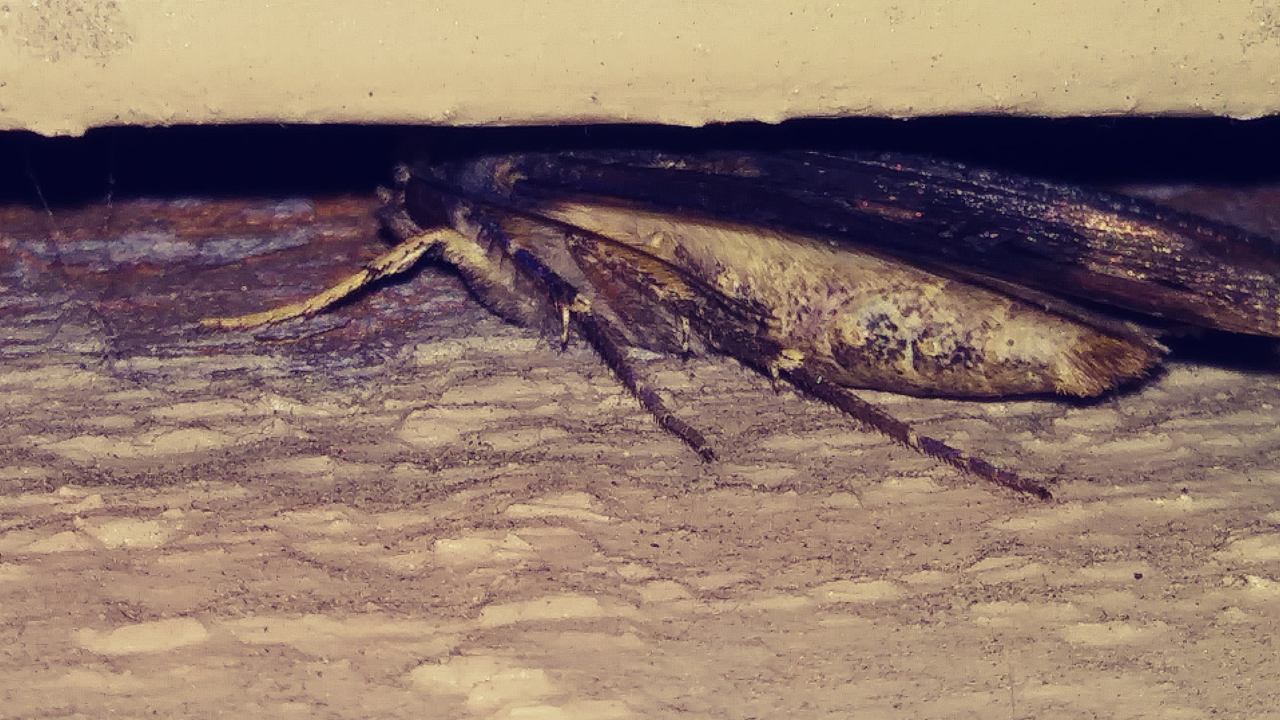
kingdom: Animalia
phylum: Arthropoda
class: Insecta
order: Lepidoptera
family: Noctuidae
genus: Agrotis
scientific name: Agrotis ipsilon
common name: Dark sword-grass
